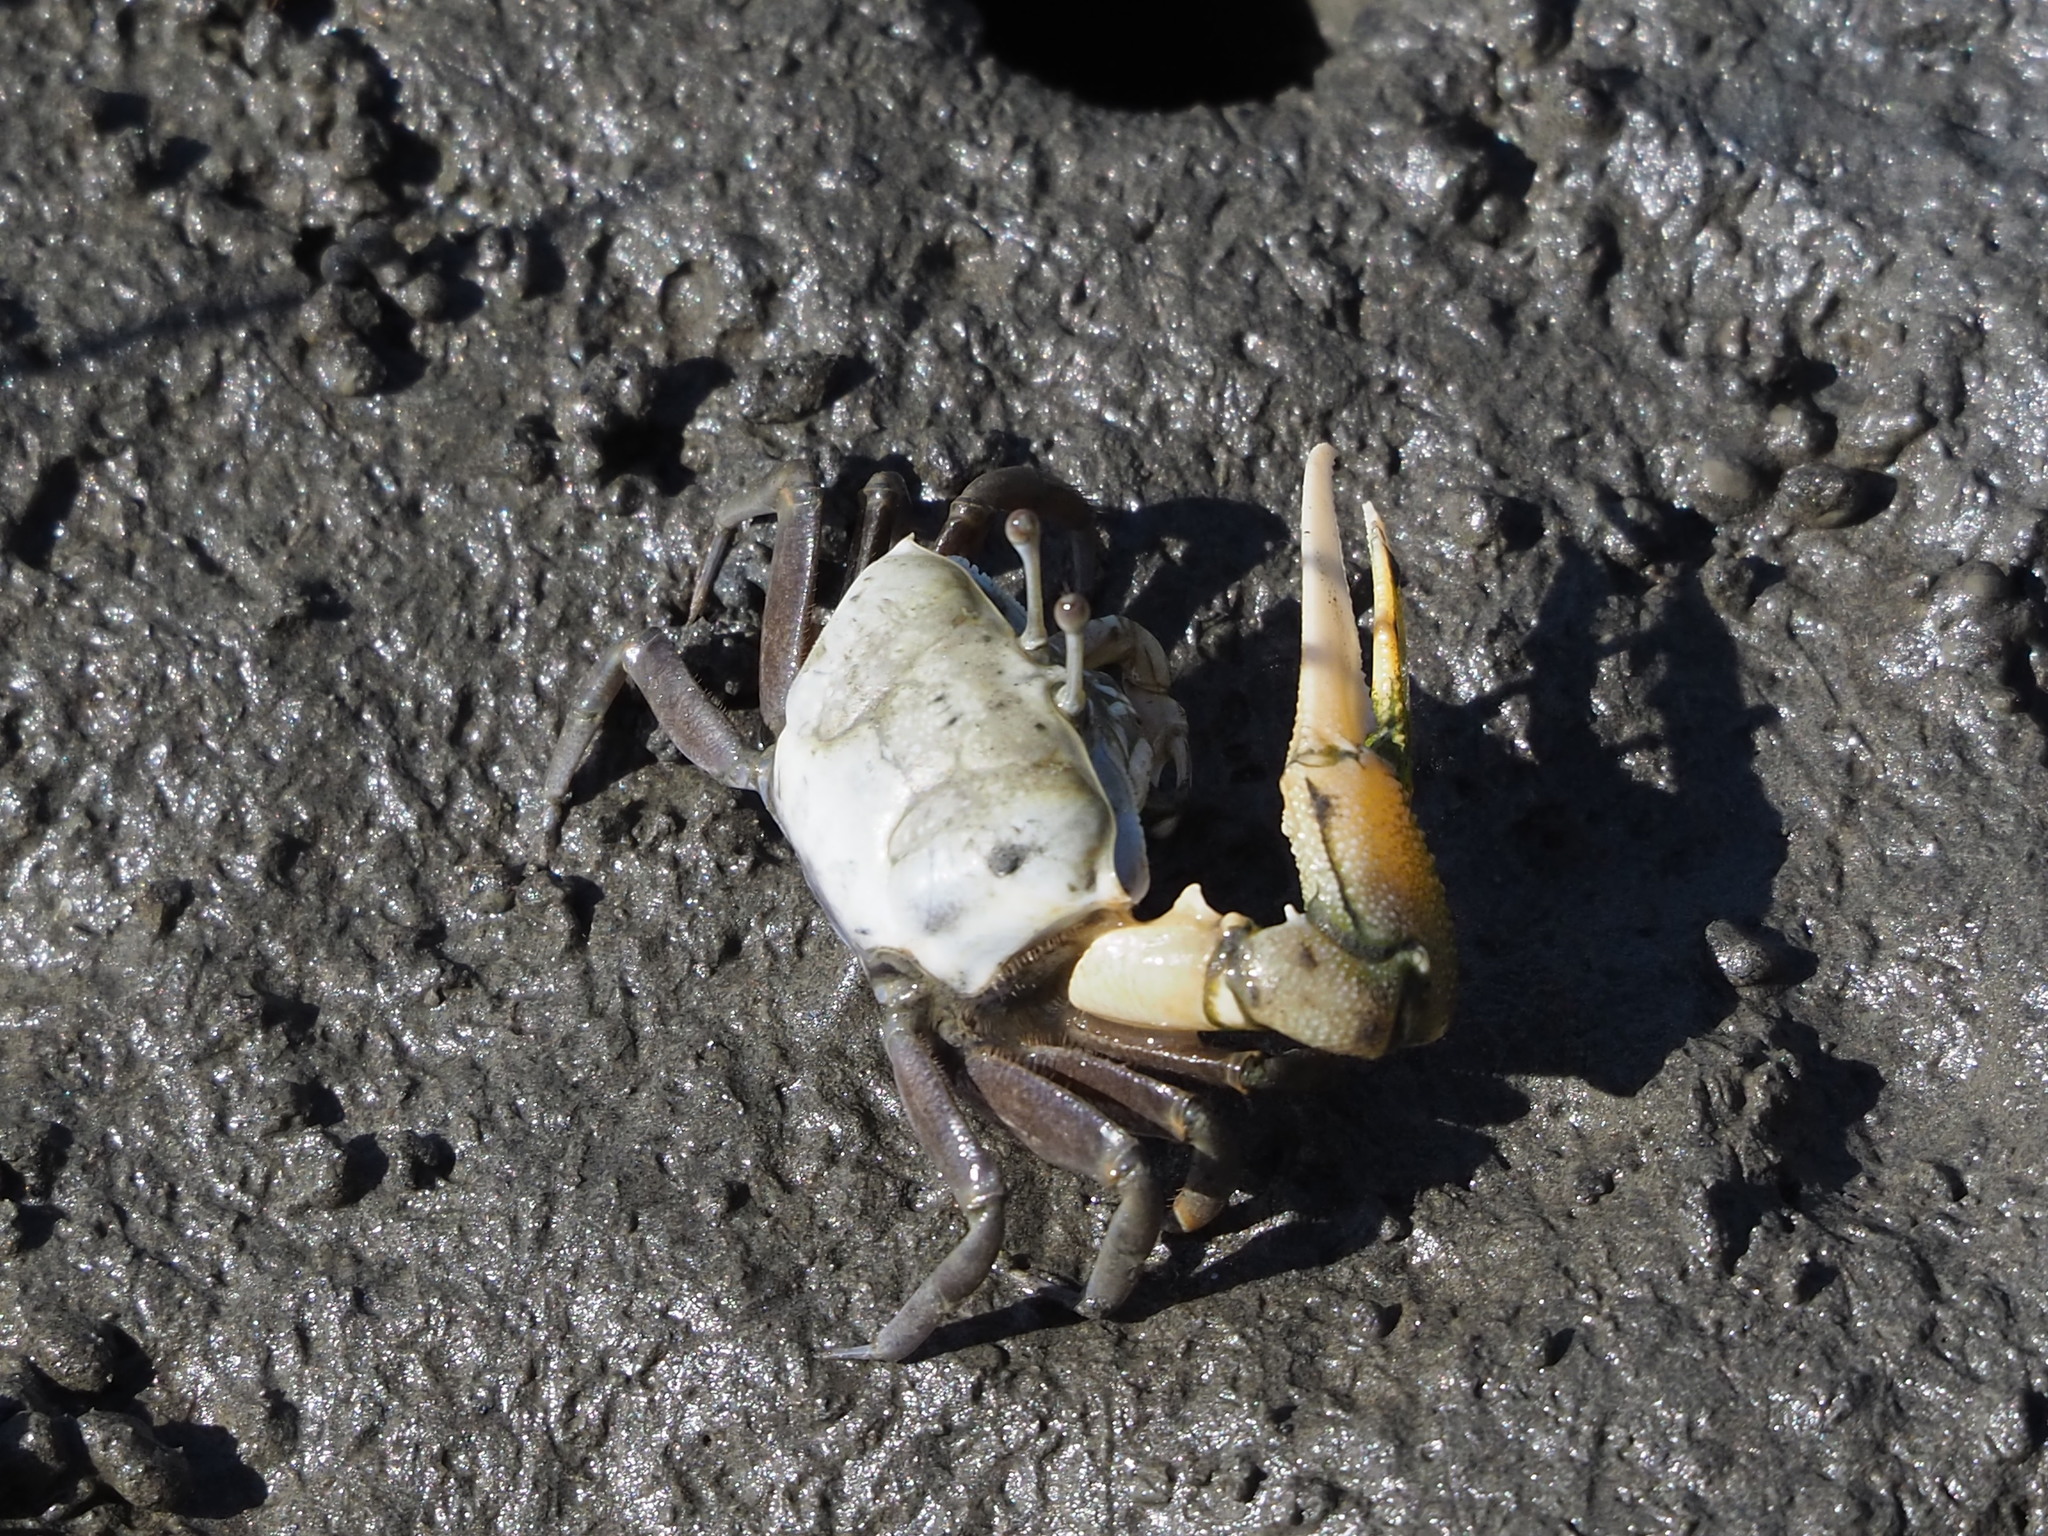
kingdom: Animalia
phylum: Arthropoda
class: Malacostraca
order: Decapoda
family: Ocypodidae
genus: Gelasimus
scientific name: Gelasimus borealis
